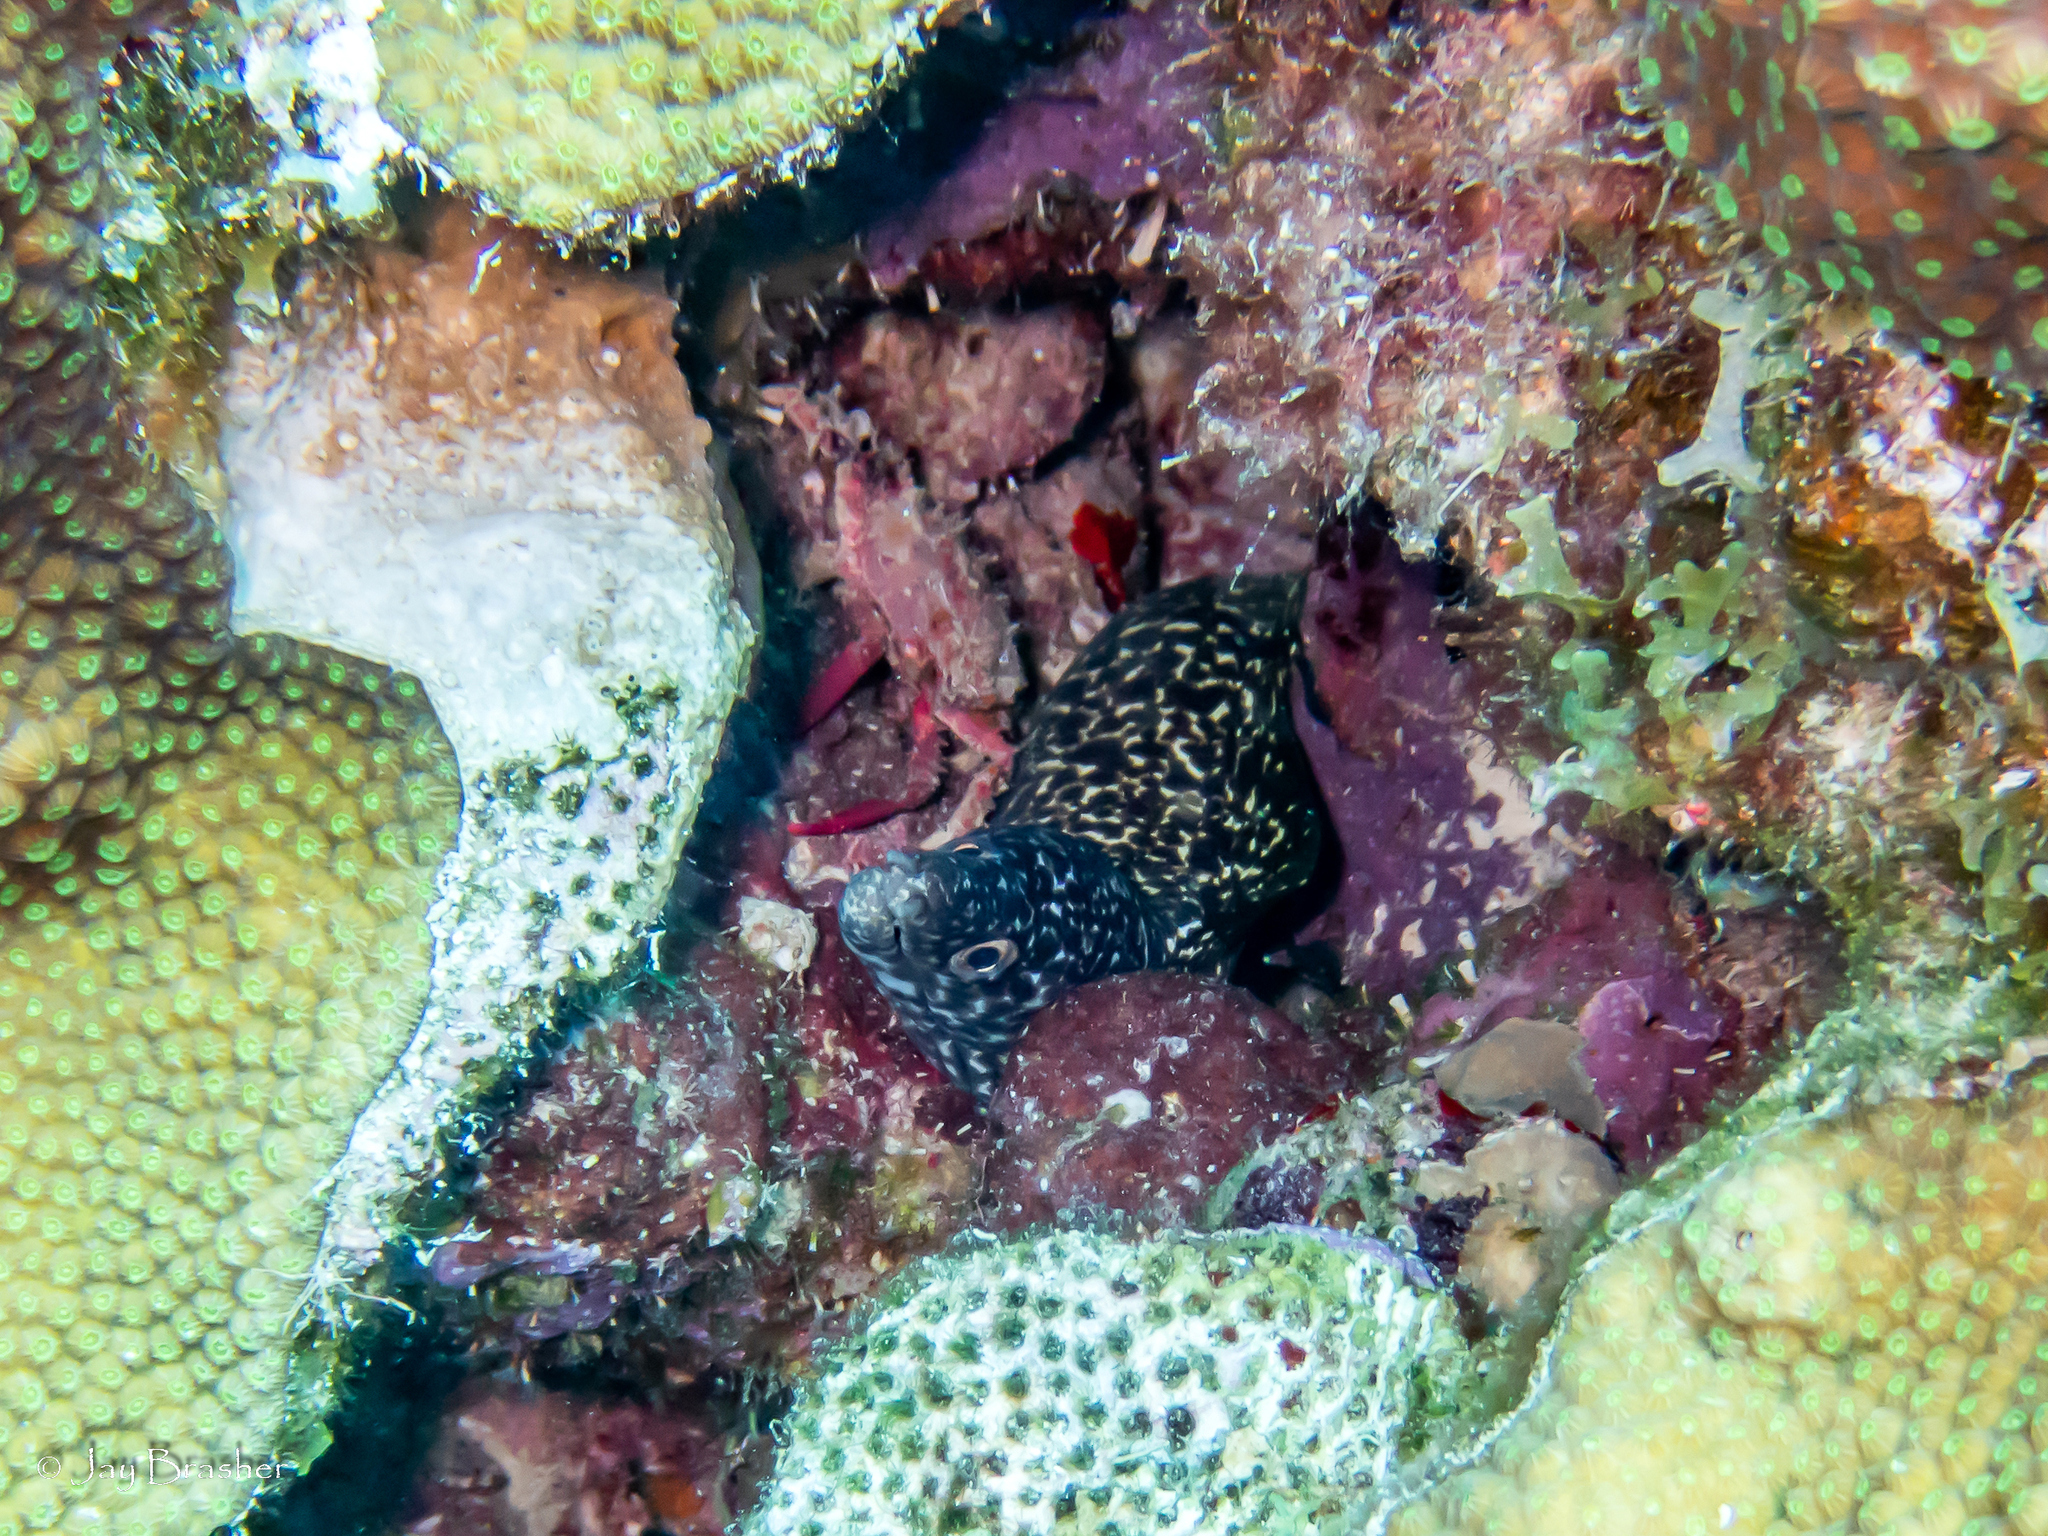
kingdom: Animalia
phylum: Chordata
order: Anguilliformes
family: Muraenidae
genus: Gymnothorax
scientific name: Gymnothorax moringa
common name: Spotted moray
